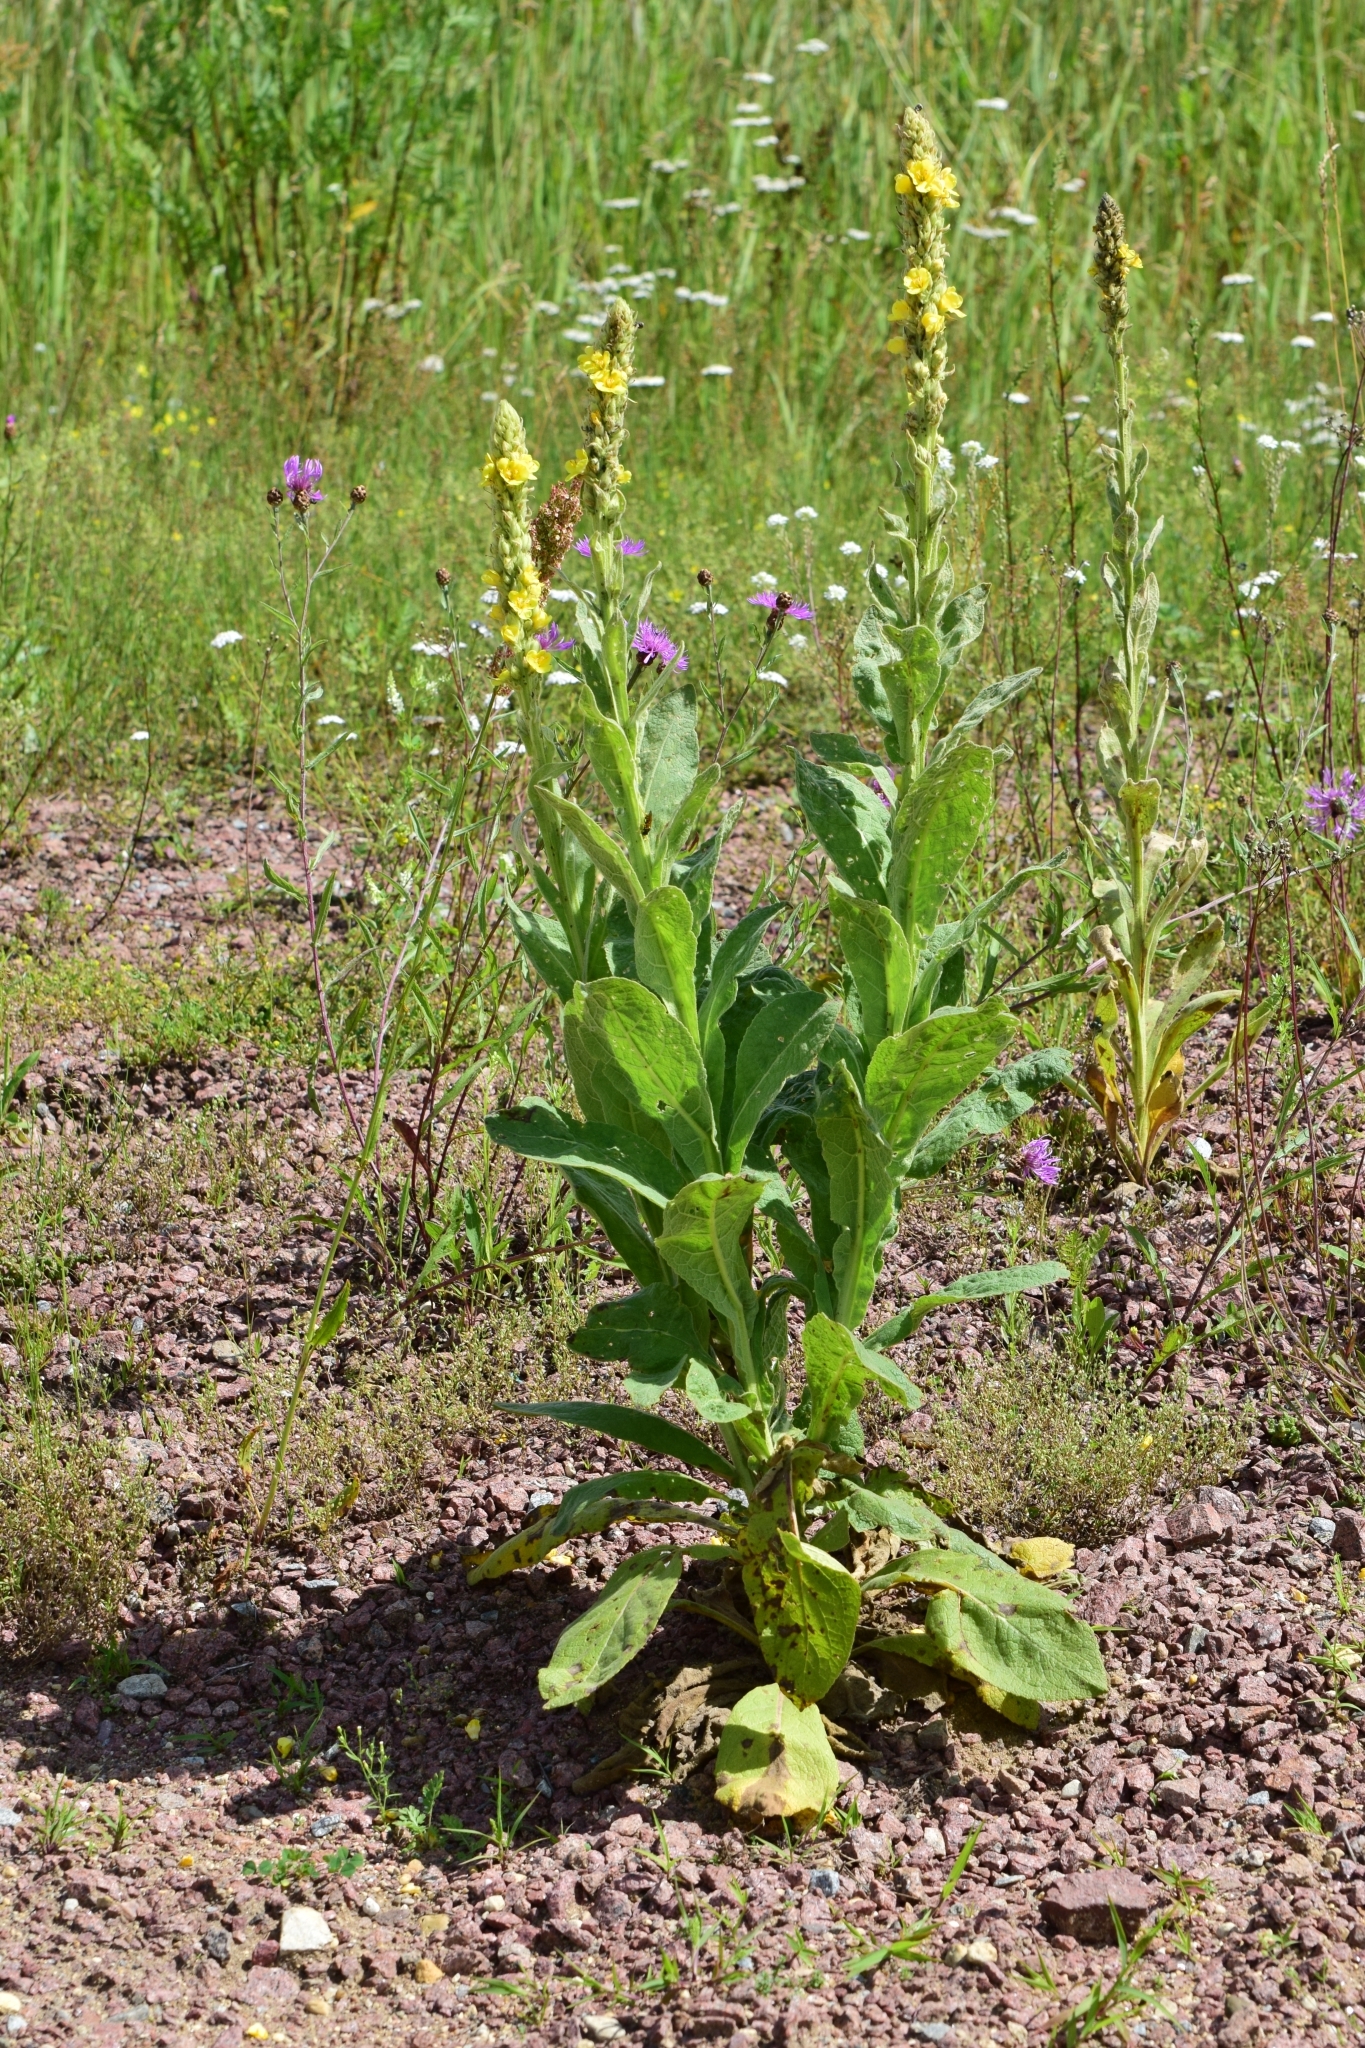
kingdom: Plantae
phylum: Tracheophyta
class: Magnoliopsida
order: Lamiales
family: Scrophulariaceae
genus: Verbascum
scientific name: Verbascum thapsus
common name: Common mullein
